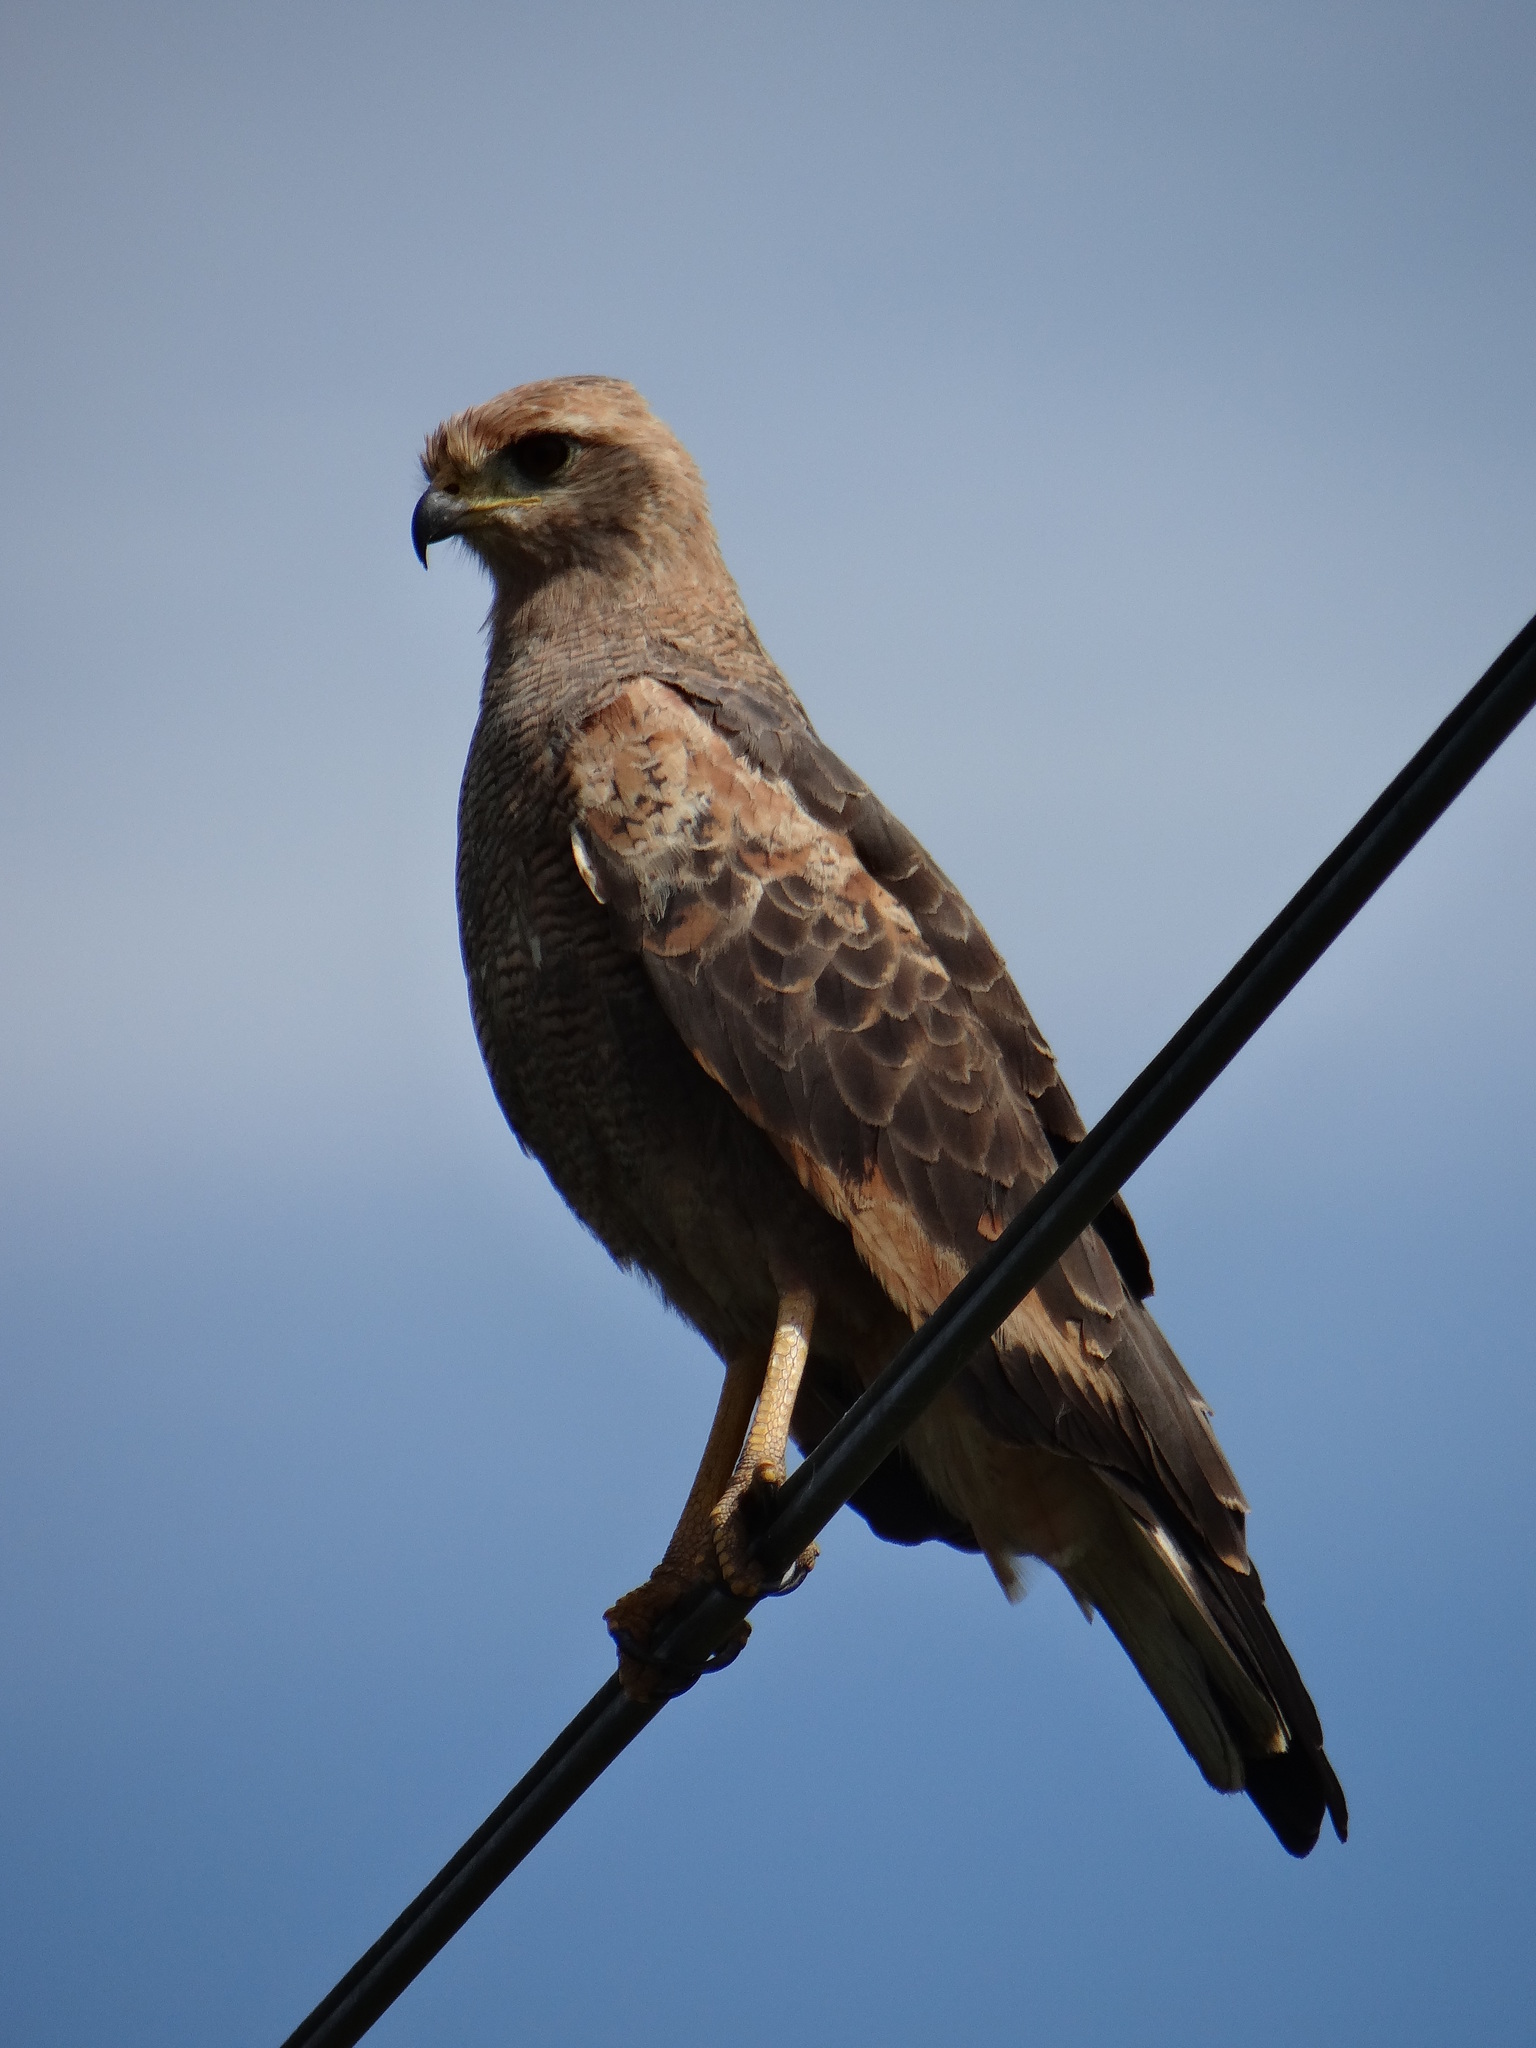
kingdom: Animalia
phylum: Chordata
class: Aves
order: Accipitriformes
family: Accipitridae
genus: Buteogallus
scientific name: Buteogallus meridionalis
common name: Savanna hawk
